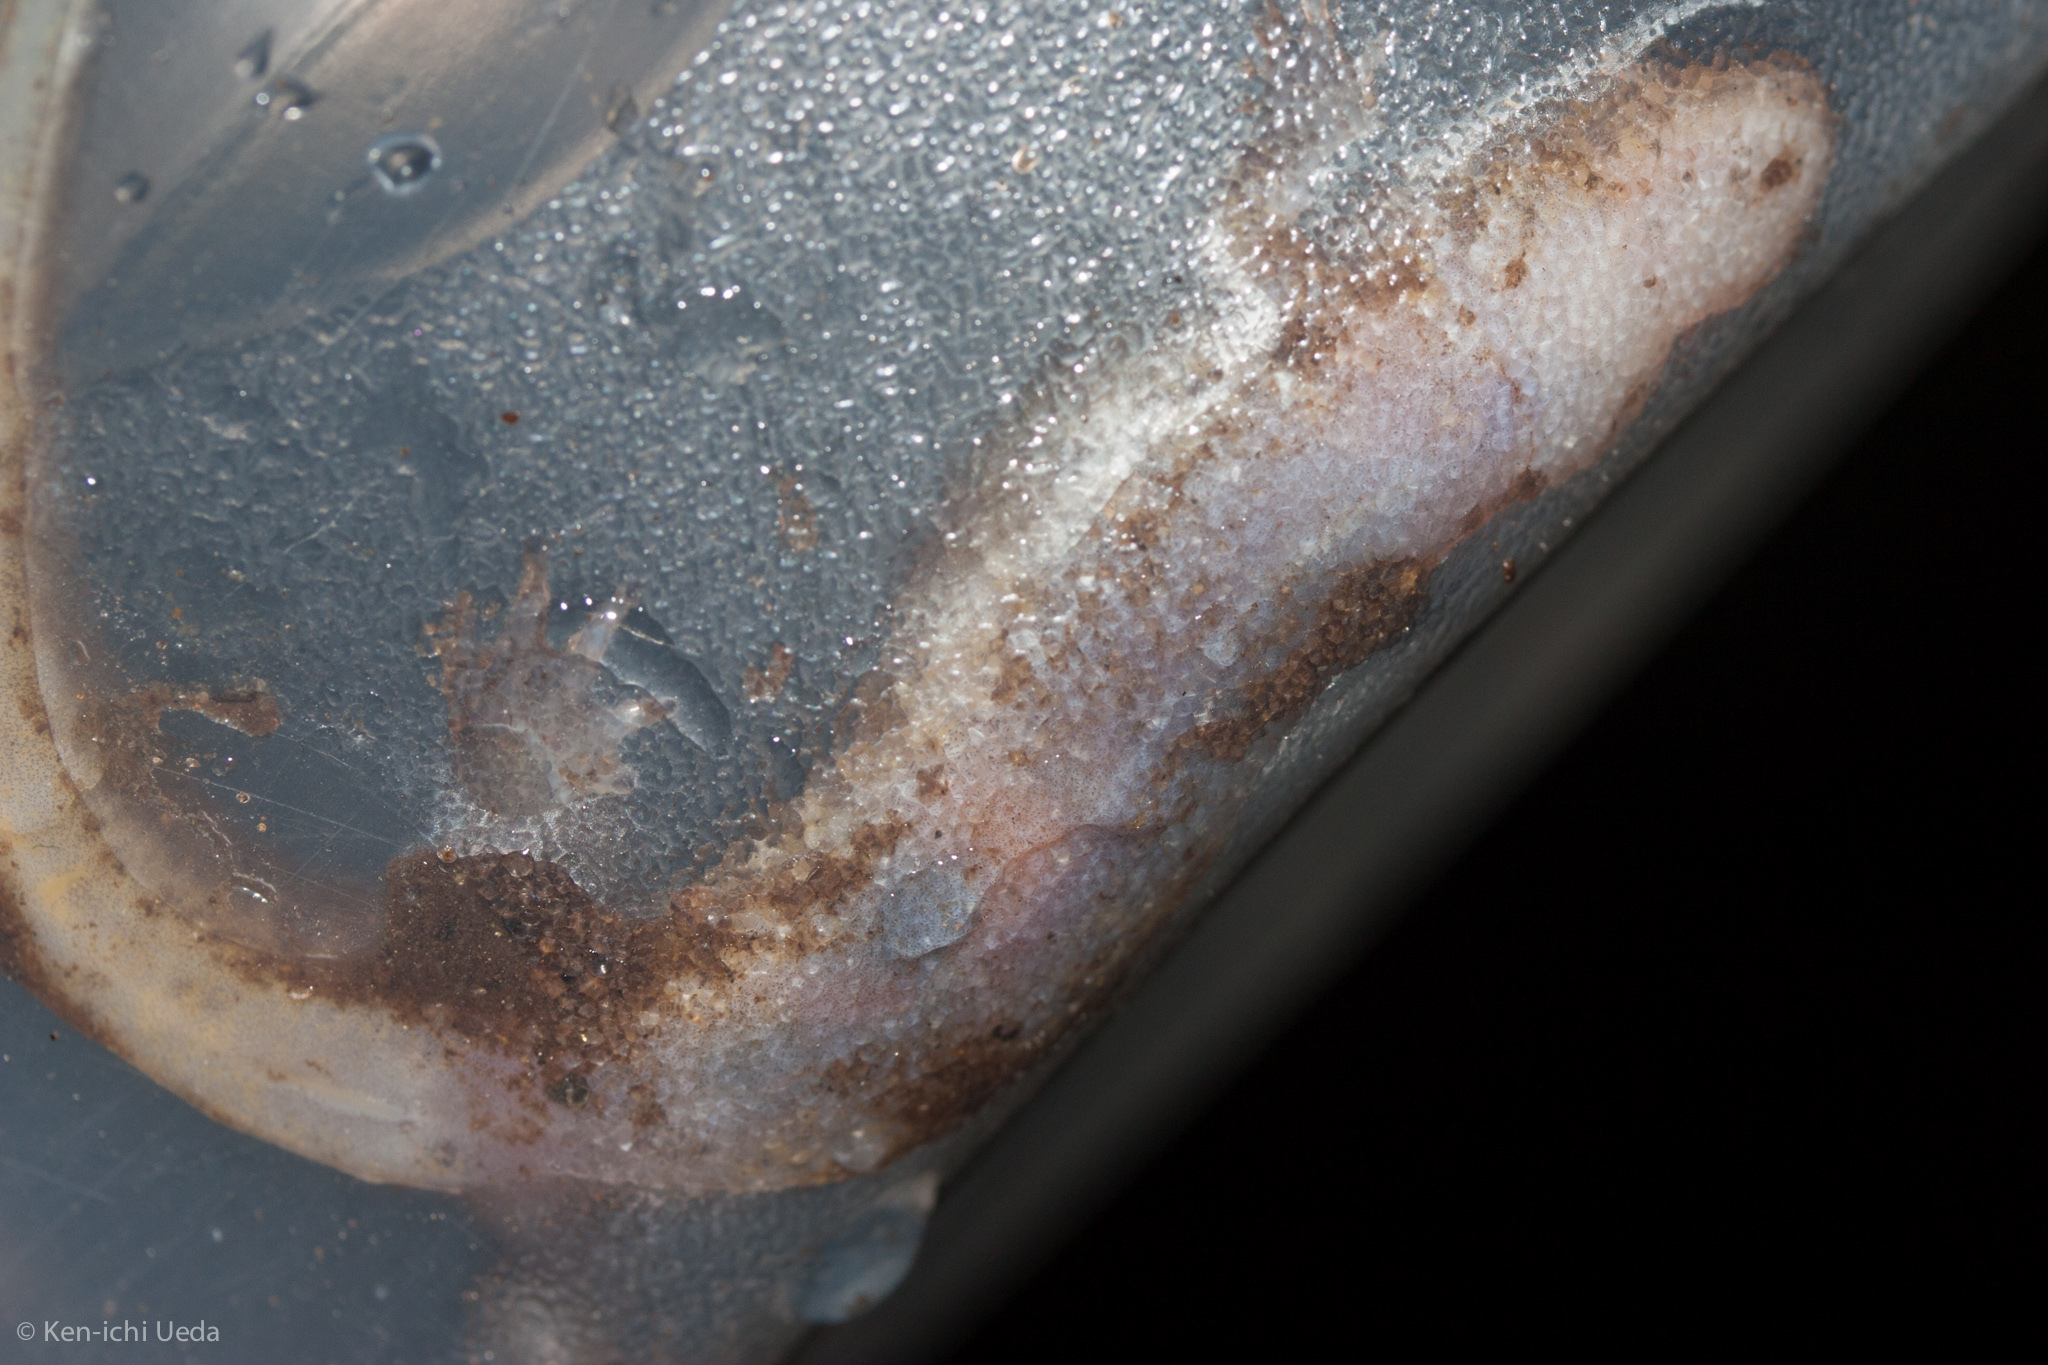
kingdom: Animalia
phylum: Chordata
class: Amphibia
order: Caudata
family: Plethodontidae
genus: Desmognathus
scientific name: Desmognathus monticola
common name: Seal salamander
